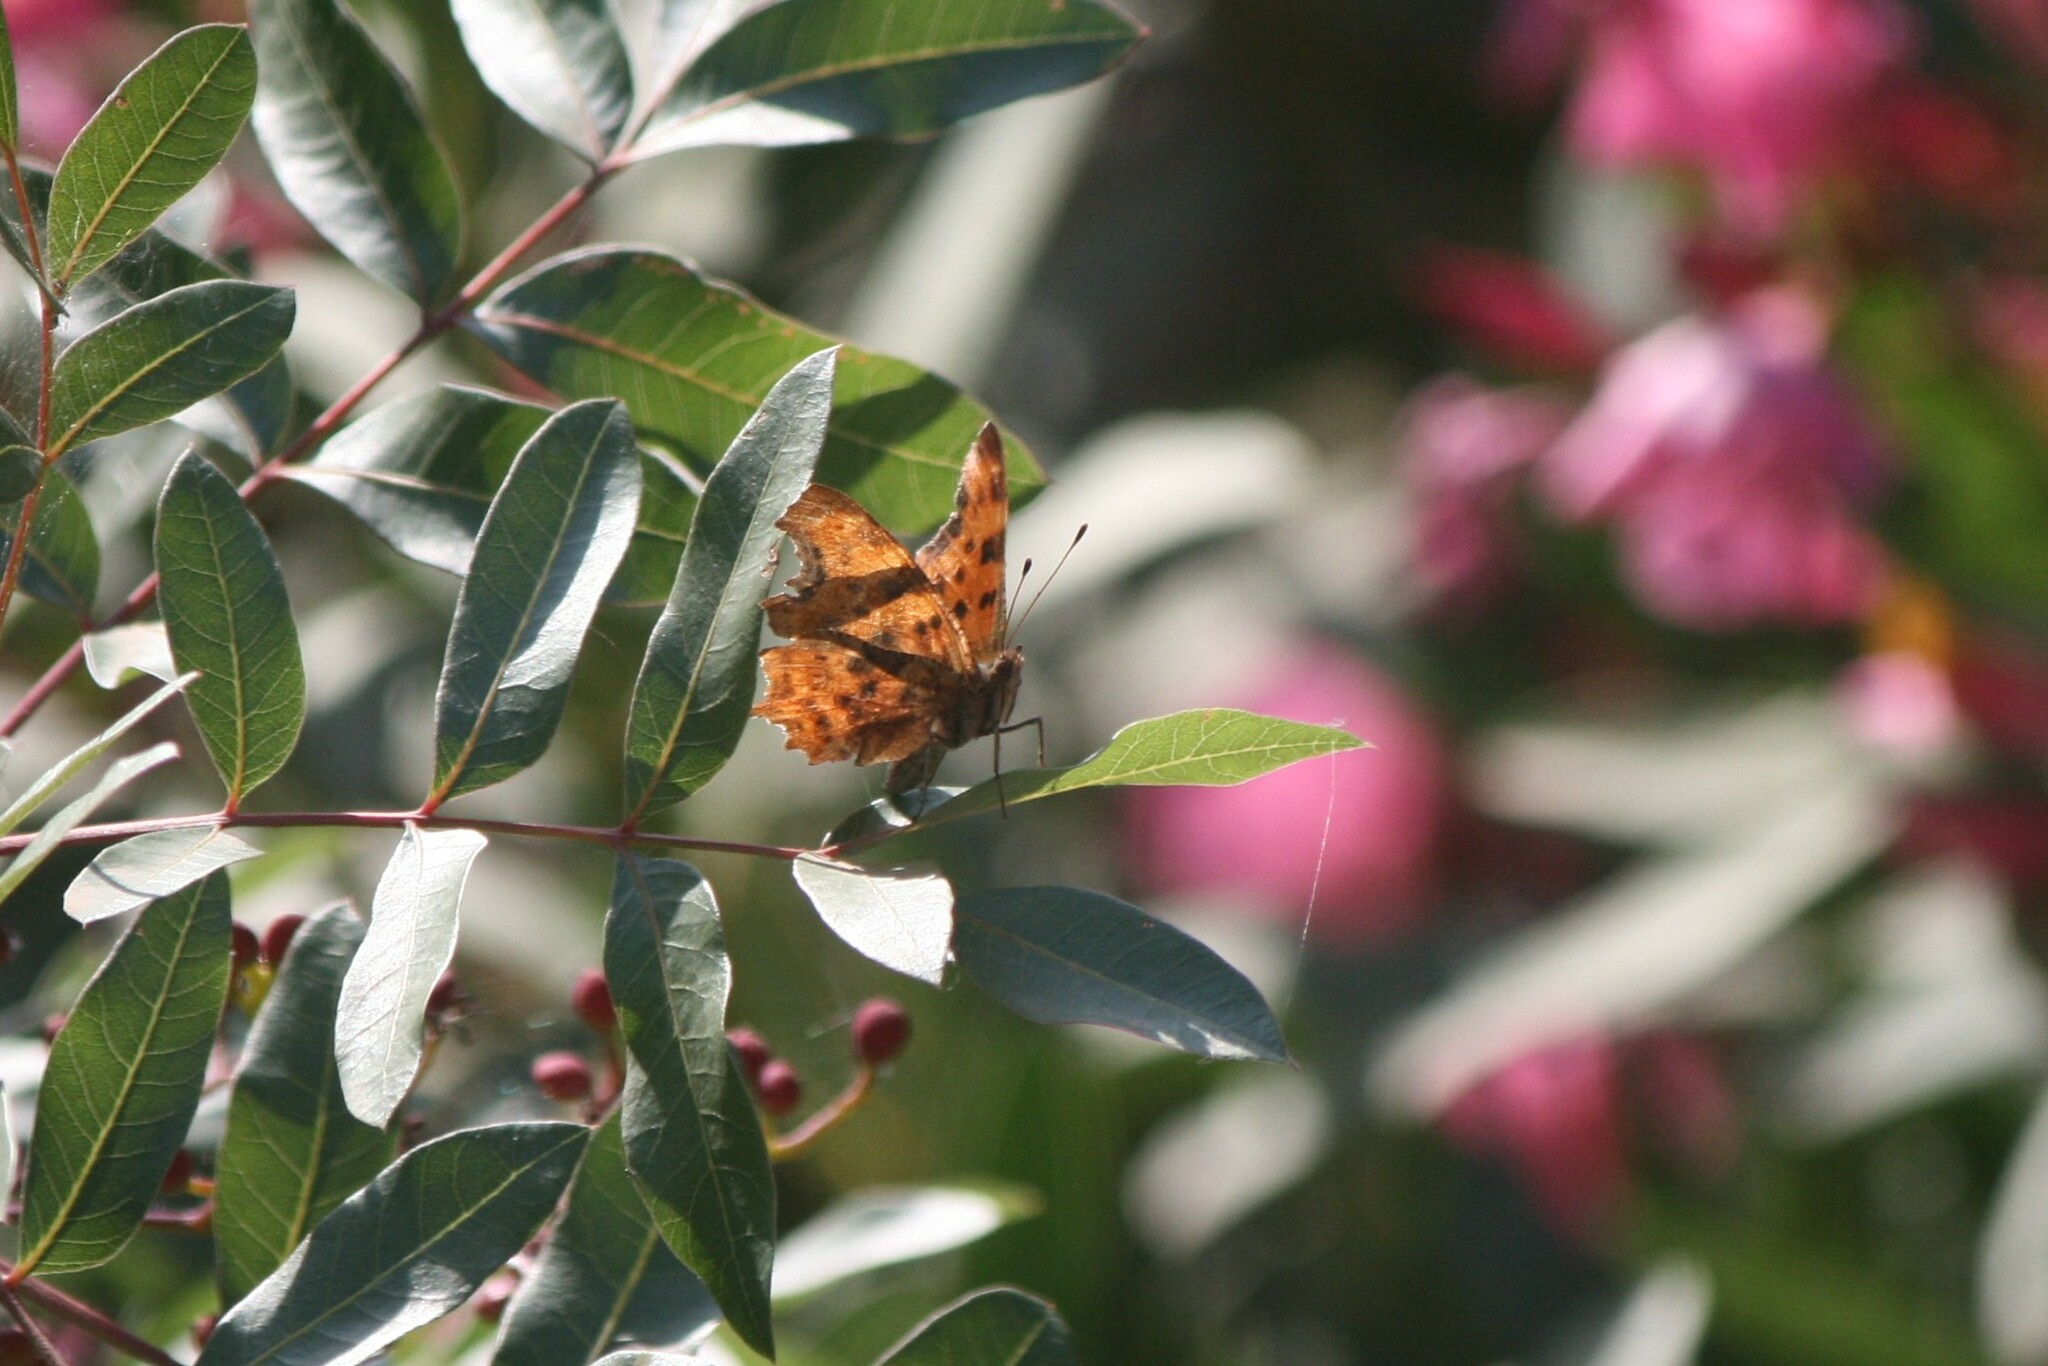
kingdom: Animalia
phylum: Arthropoda
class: Insecta
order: Lepidoptera
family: Nymphalidae
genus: Polygonia
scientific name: Polygonia c-album
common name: Comma
